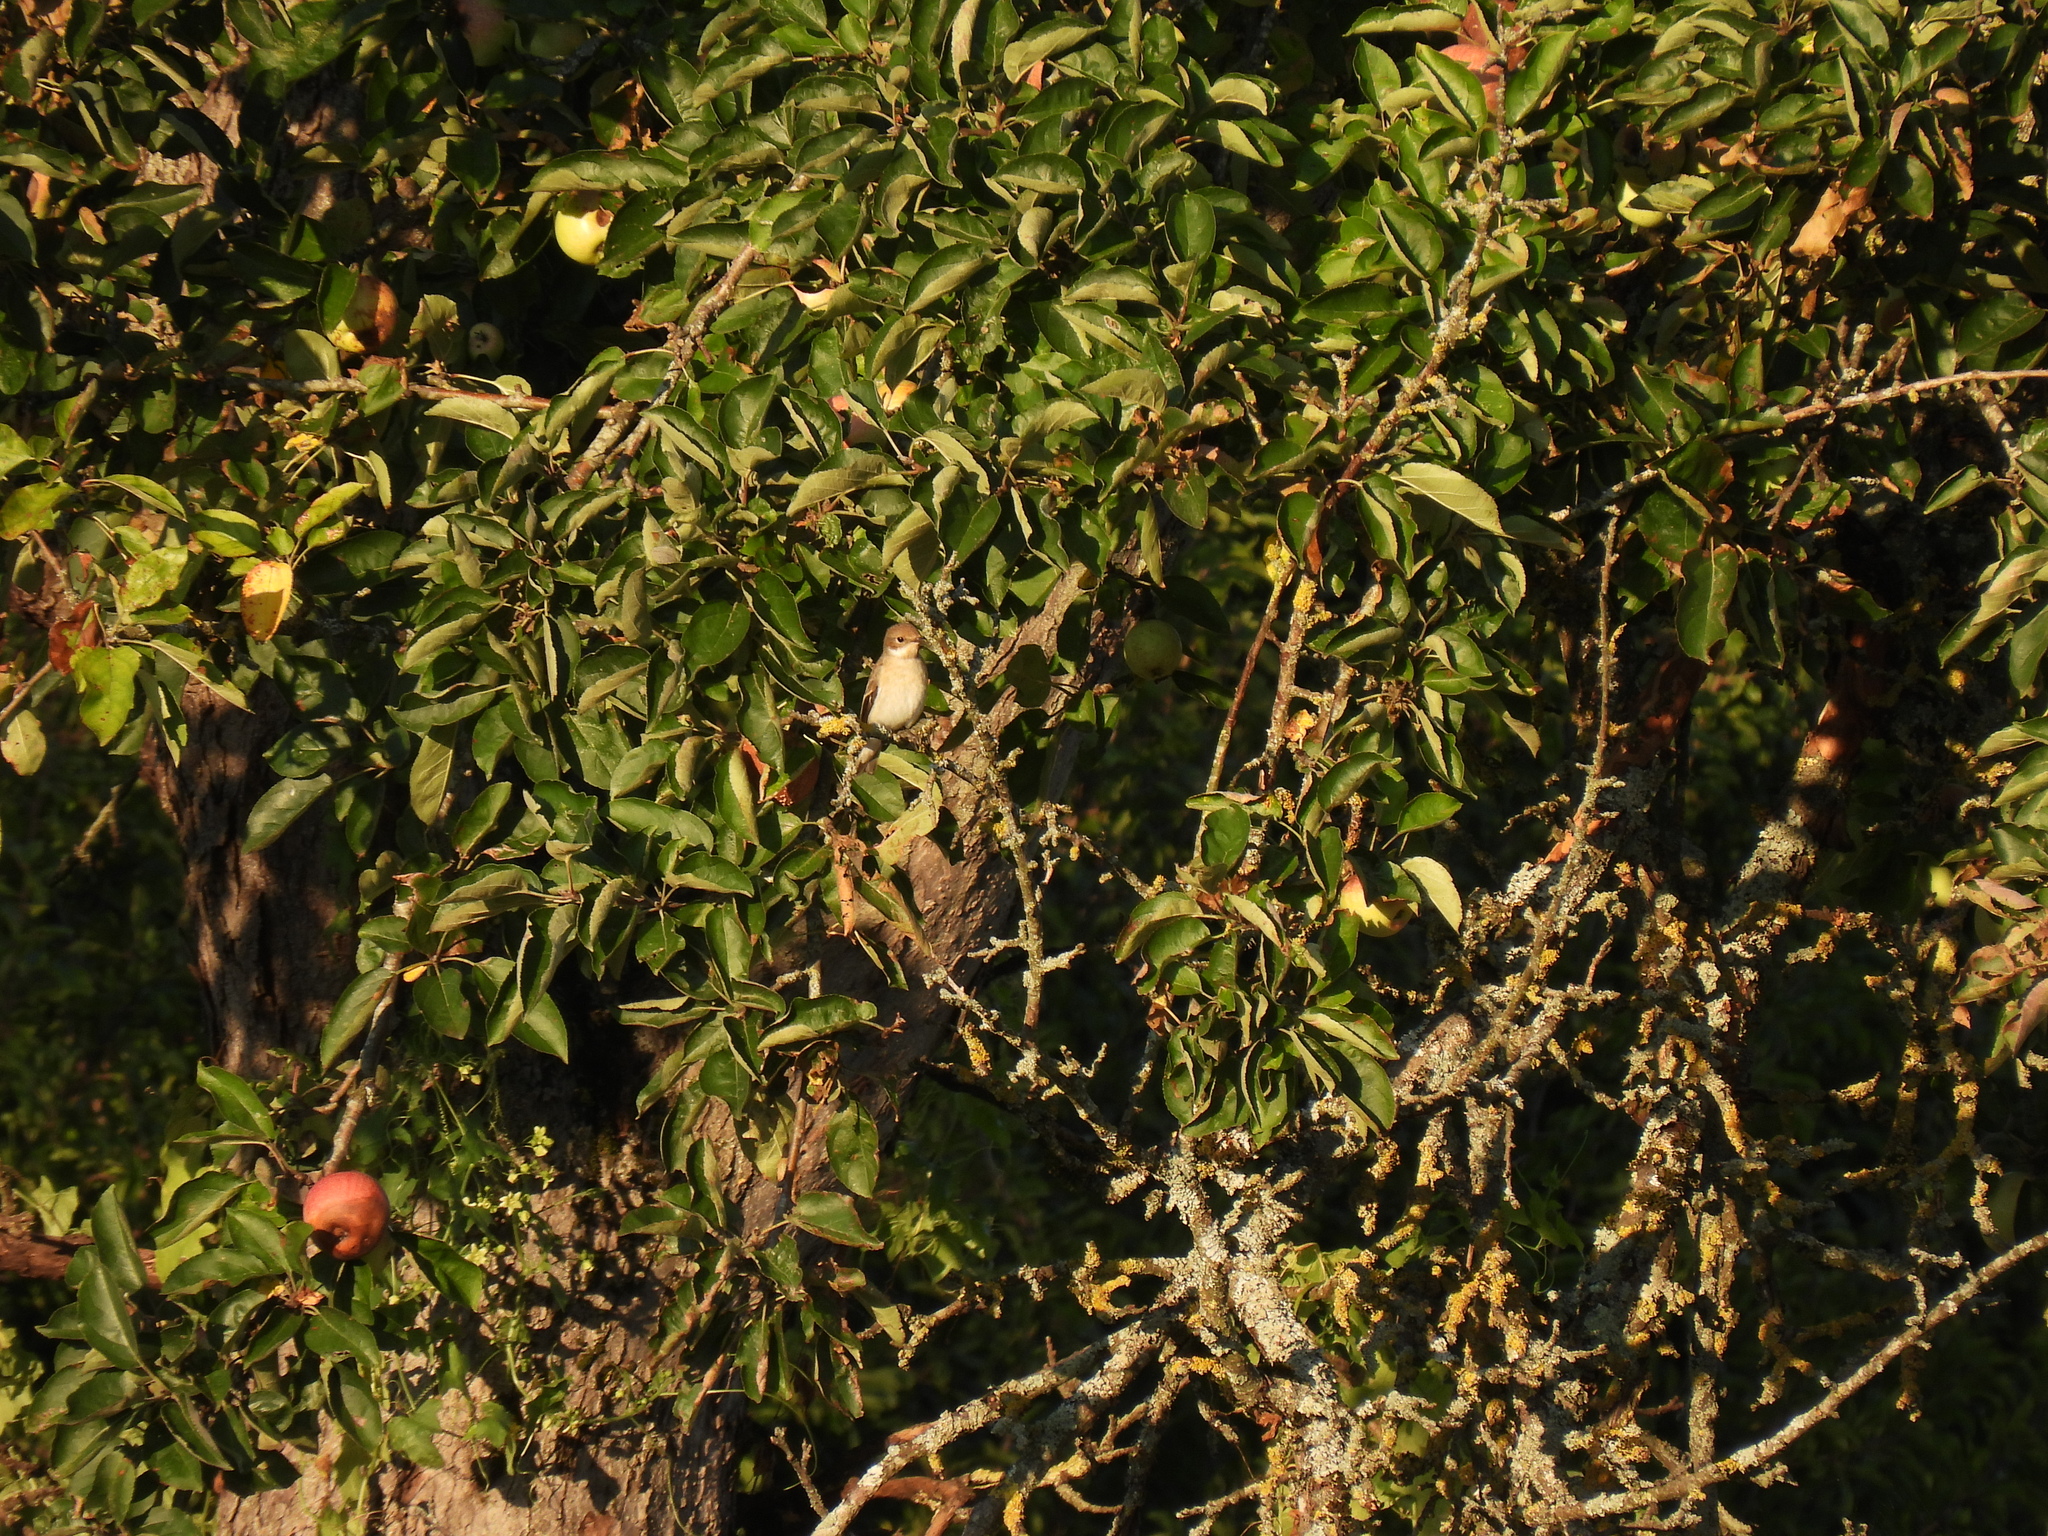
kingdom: Animalia
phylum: Chordata
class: Aves
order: Passeriformes
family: Muscicapidae
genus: Ficedula
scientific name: Ficedula hypoleuca
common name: European pied flycatcher
